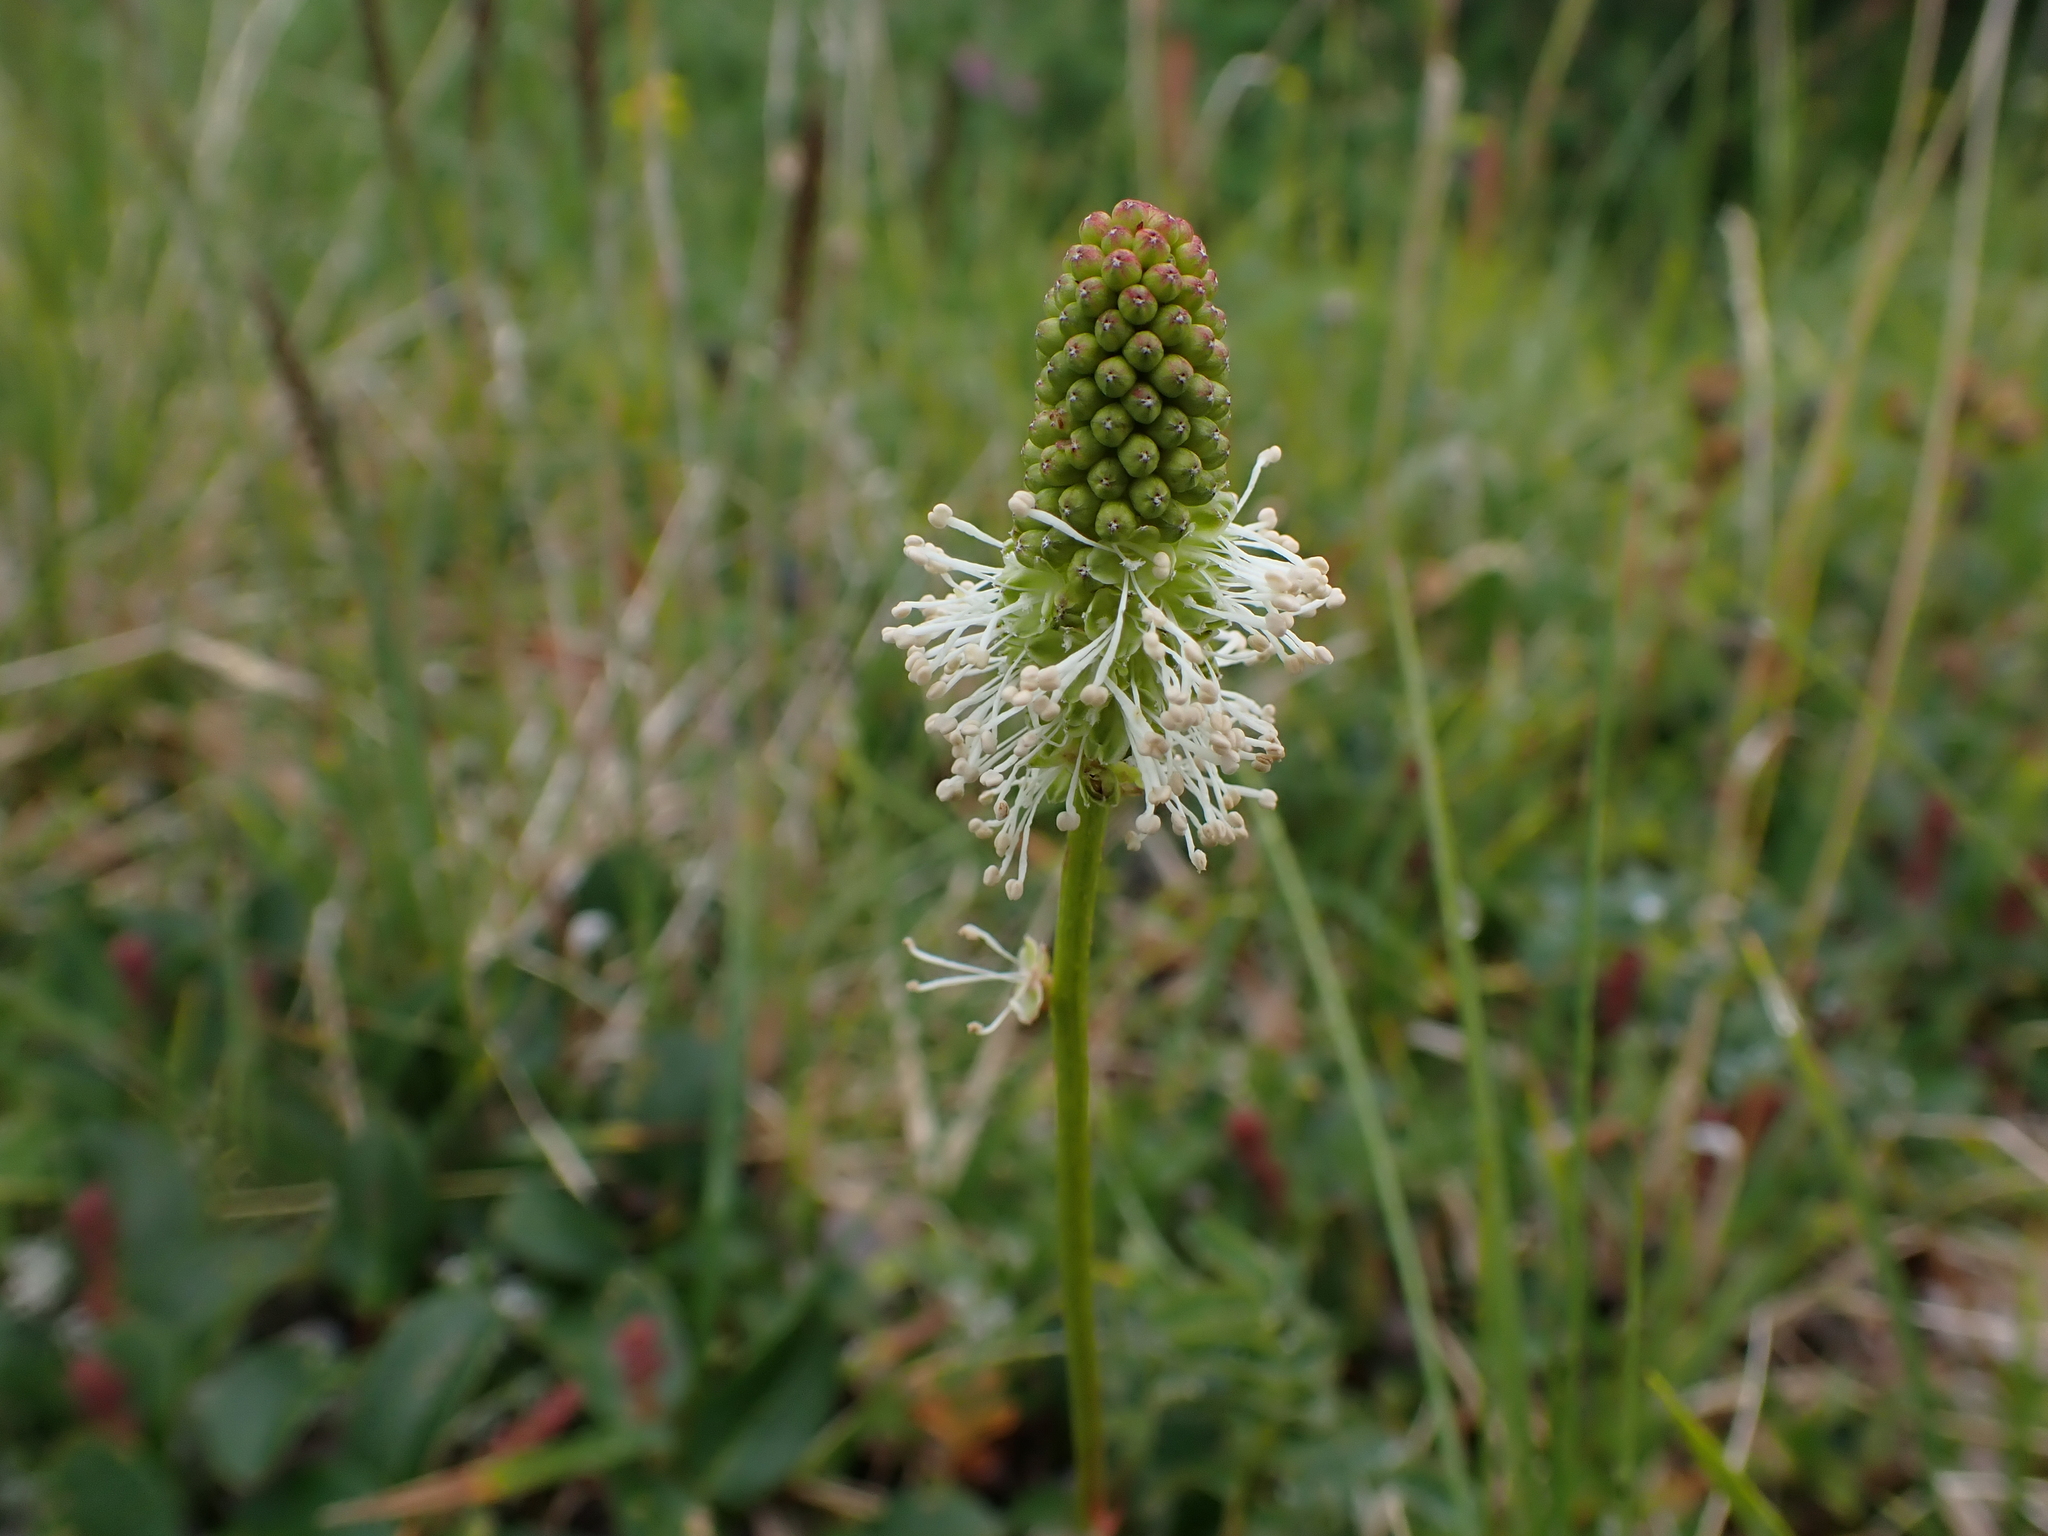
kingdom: Plantae
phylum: Tracheophyta
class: Magnoliopsida
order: Rosales
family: Rosaceae
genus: Sanguisorba
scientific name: Sanguisorba stipulata
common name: Sitka burnet
